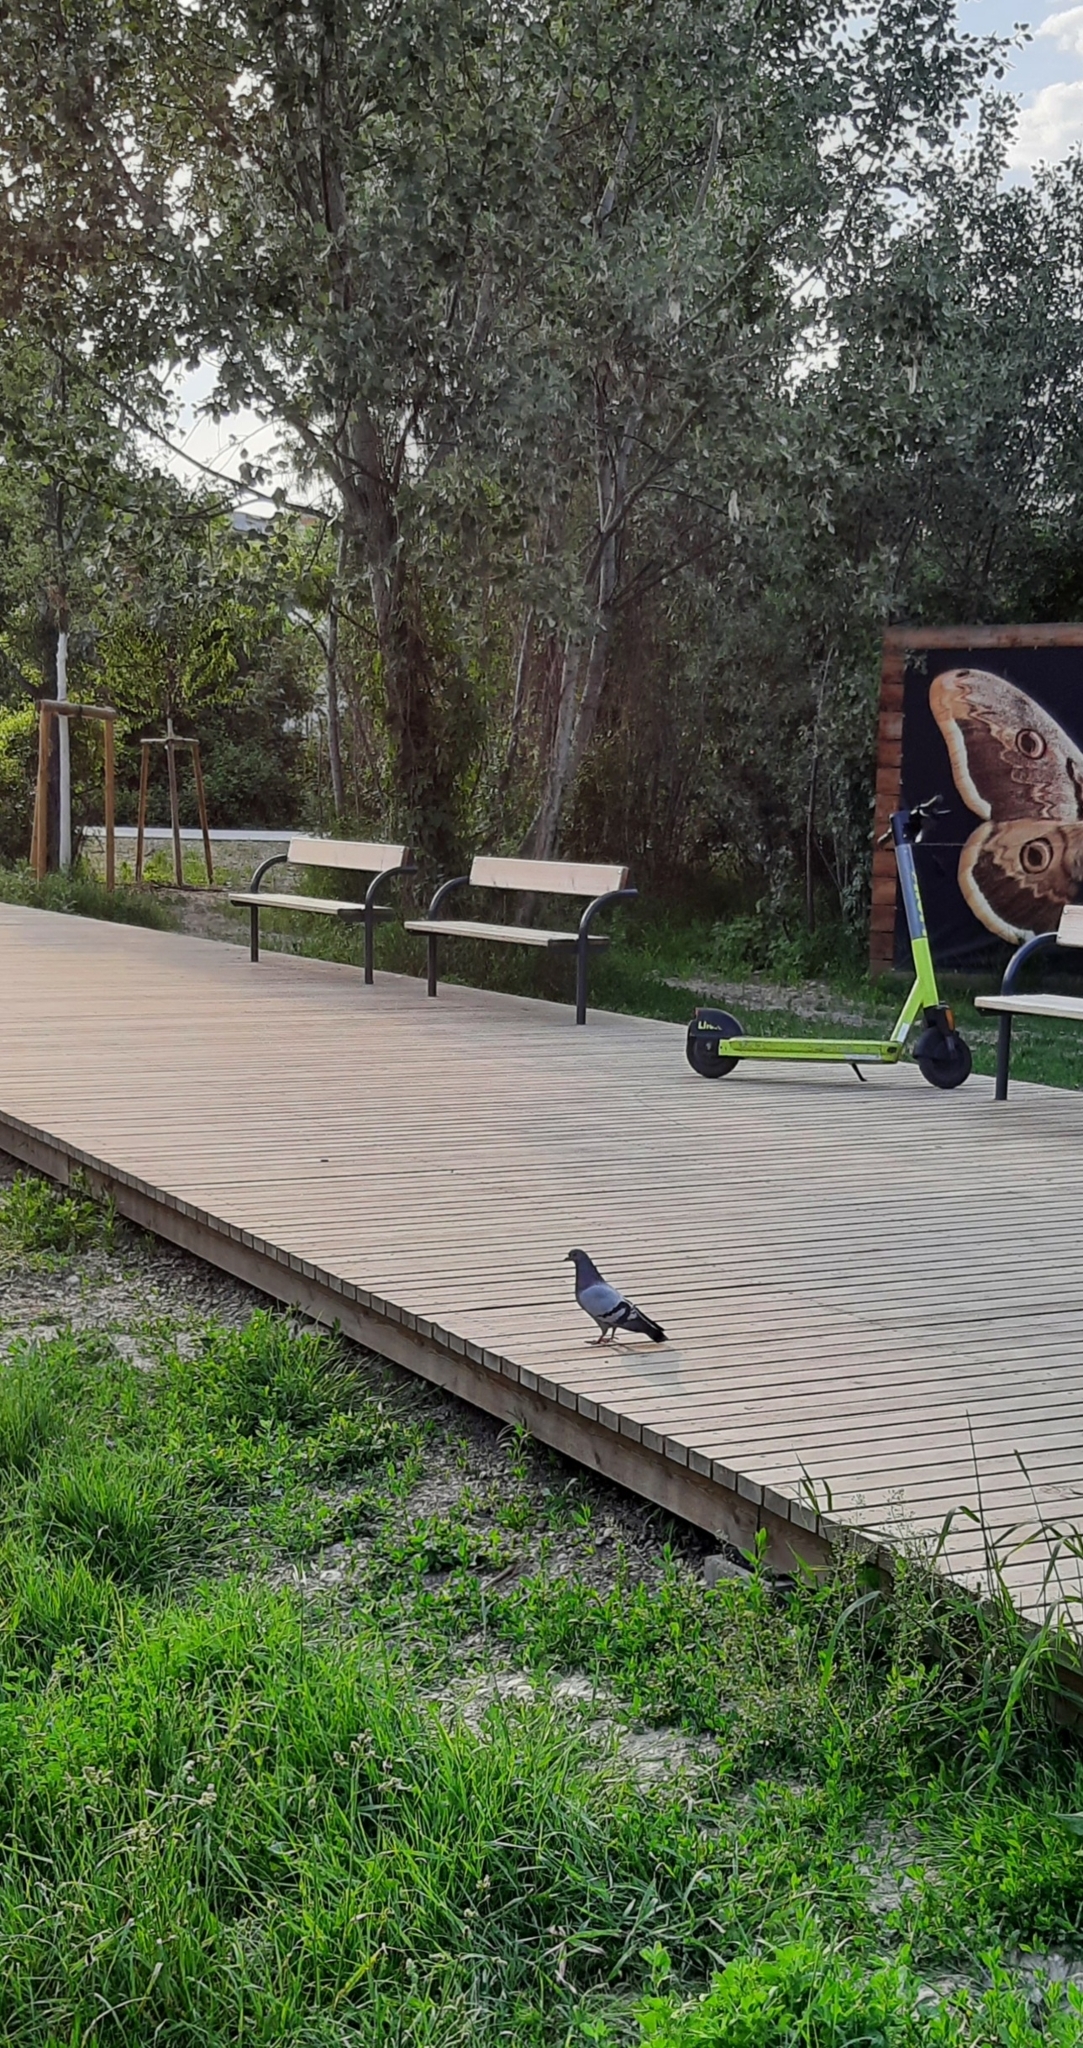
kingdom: Animalia
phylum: Chordata
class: Aves
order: Columbiformes
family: Columbidae
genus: Columba
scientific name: Columba livia
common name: Rock pigeon
